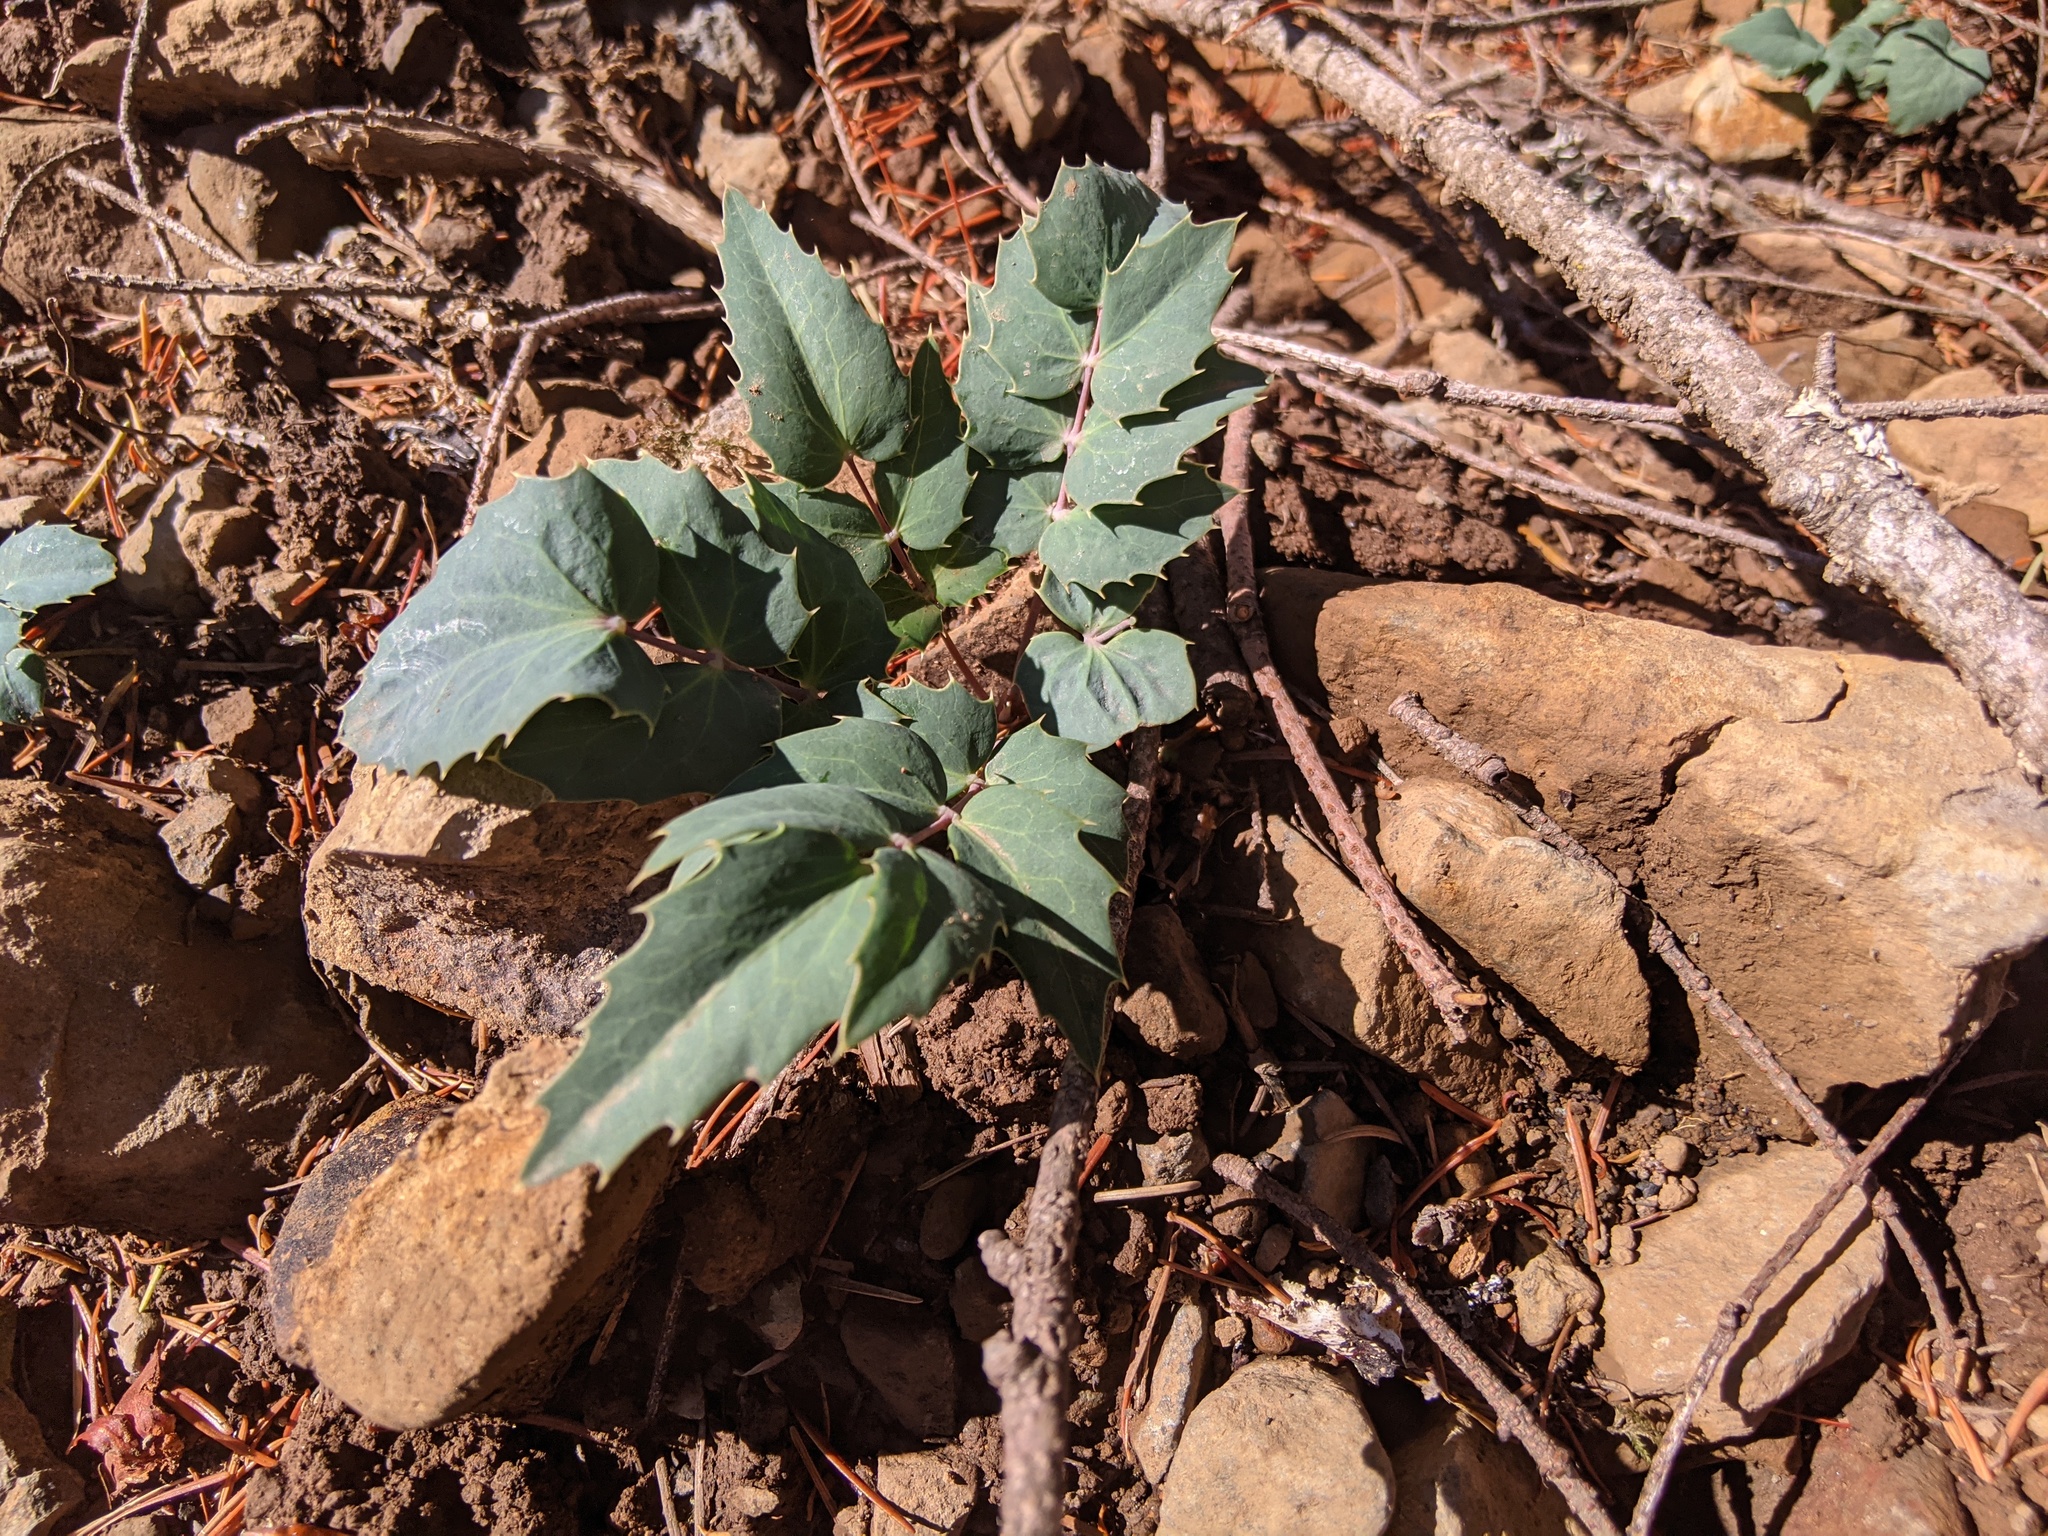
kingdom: Plantae
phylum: Tracheophyta
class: Magnoliopsida
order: Ranunculales
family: Berberidaceae
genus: Mahonia
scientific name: Mahonia nervosa
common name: Cascade oregon-grape
